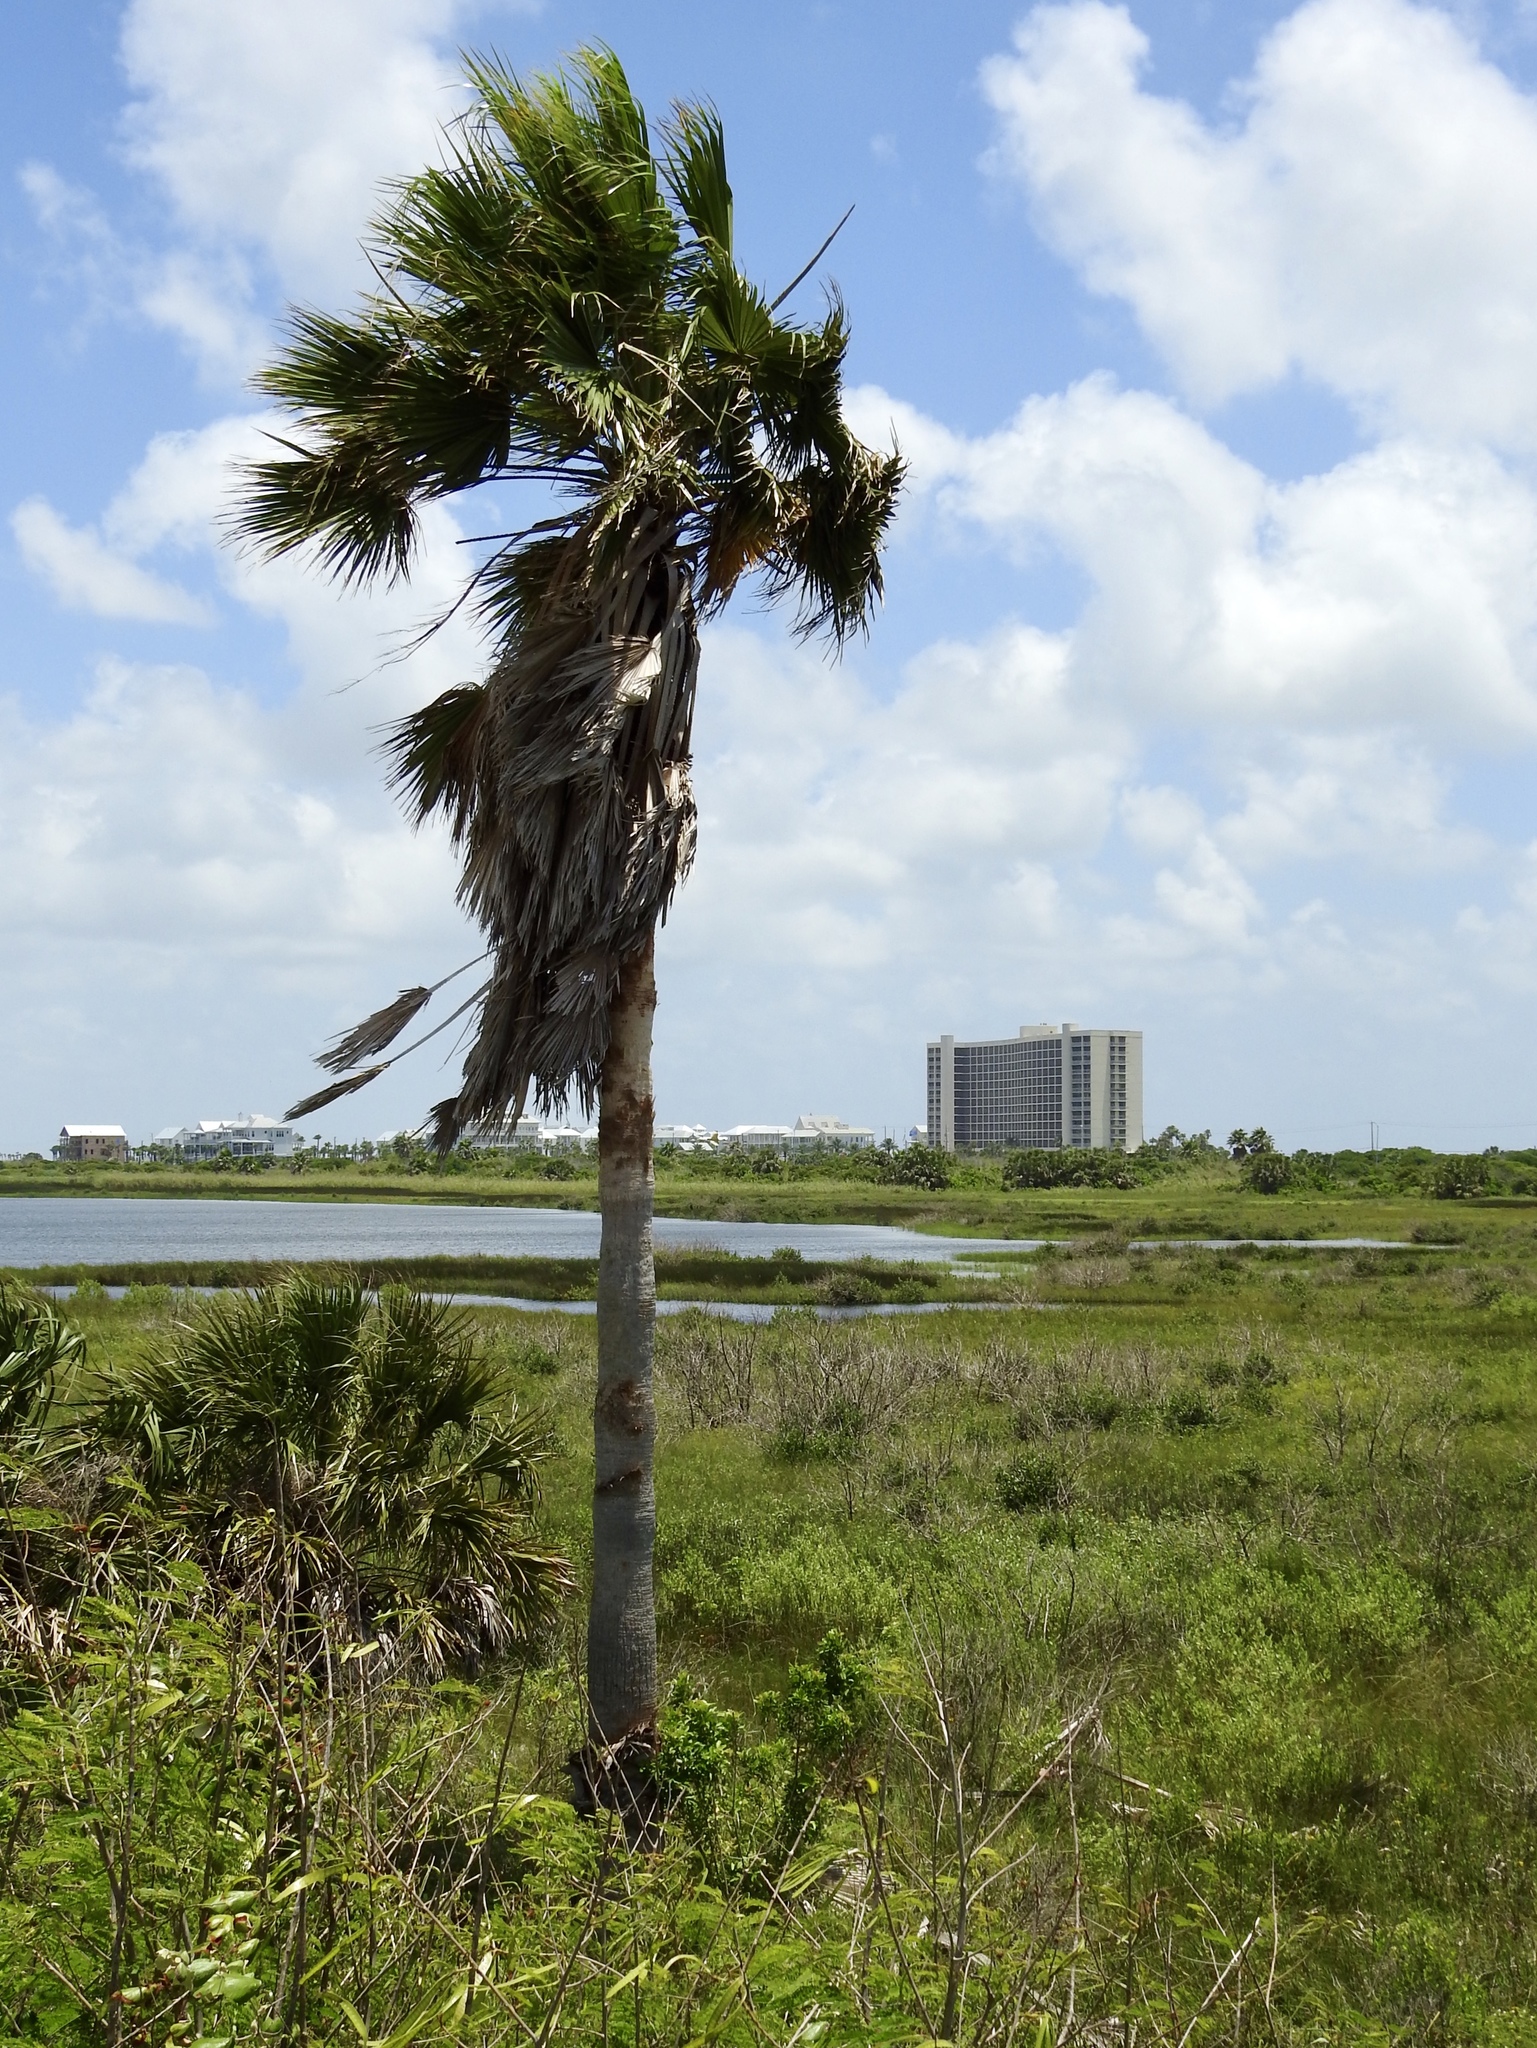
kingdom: Plantae
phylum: Tracheophyta
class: Liliopsida
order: Arecales
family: Arecaceae
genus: Washingtonia
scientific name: Washingtonia robusta
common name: Mexican fan palm
